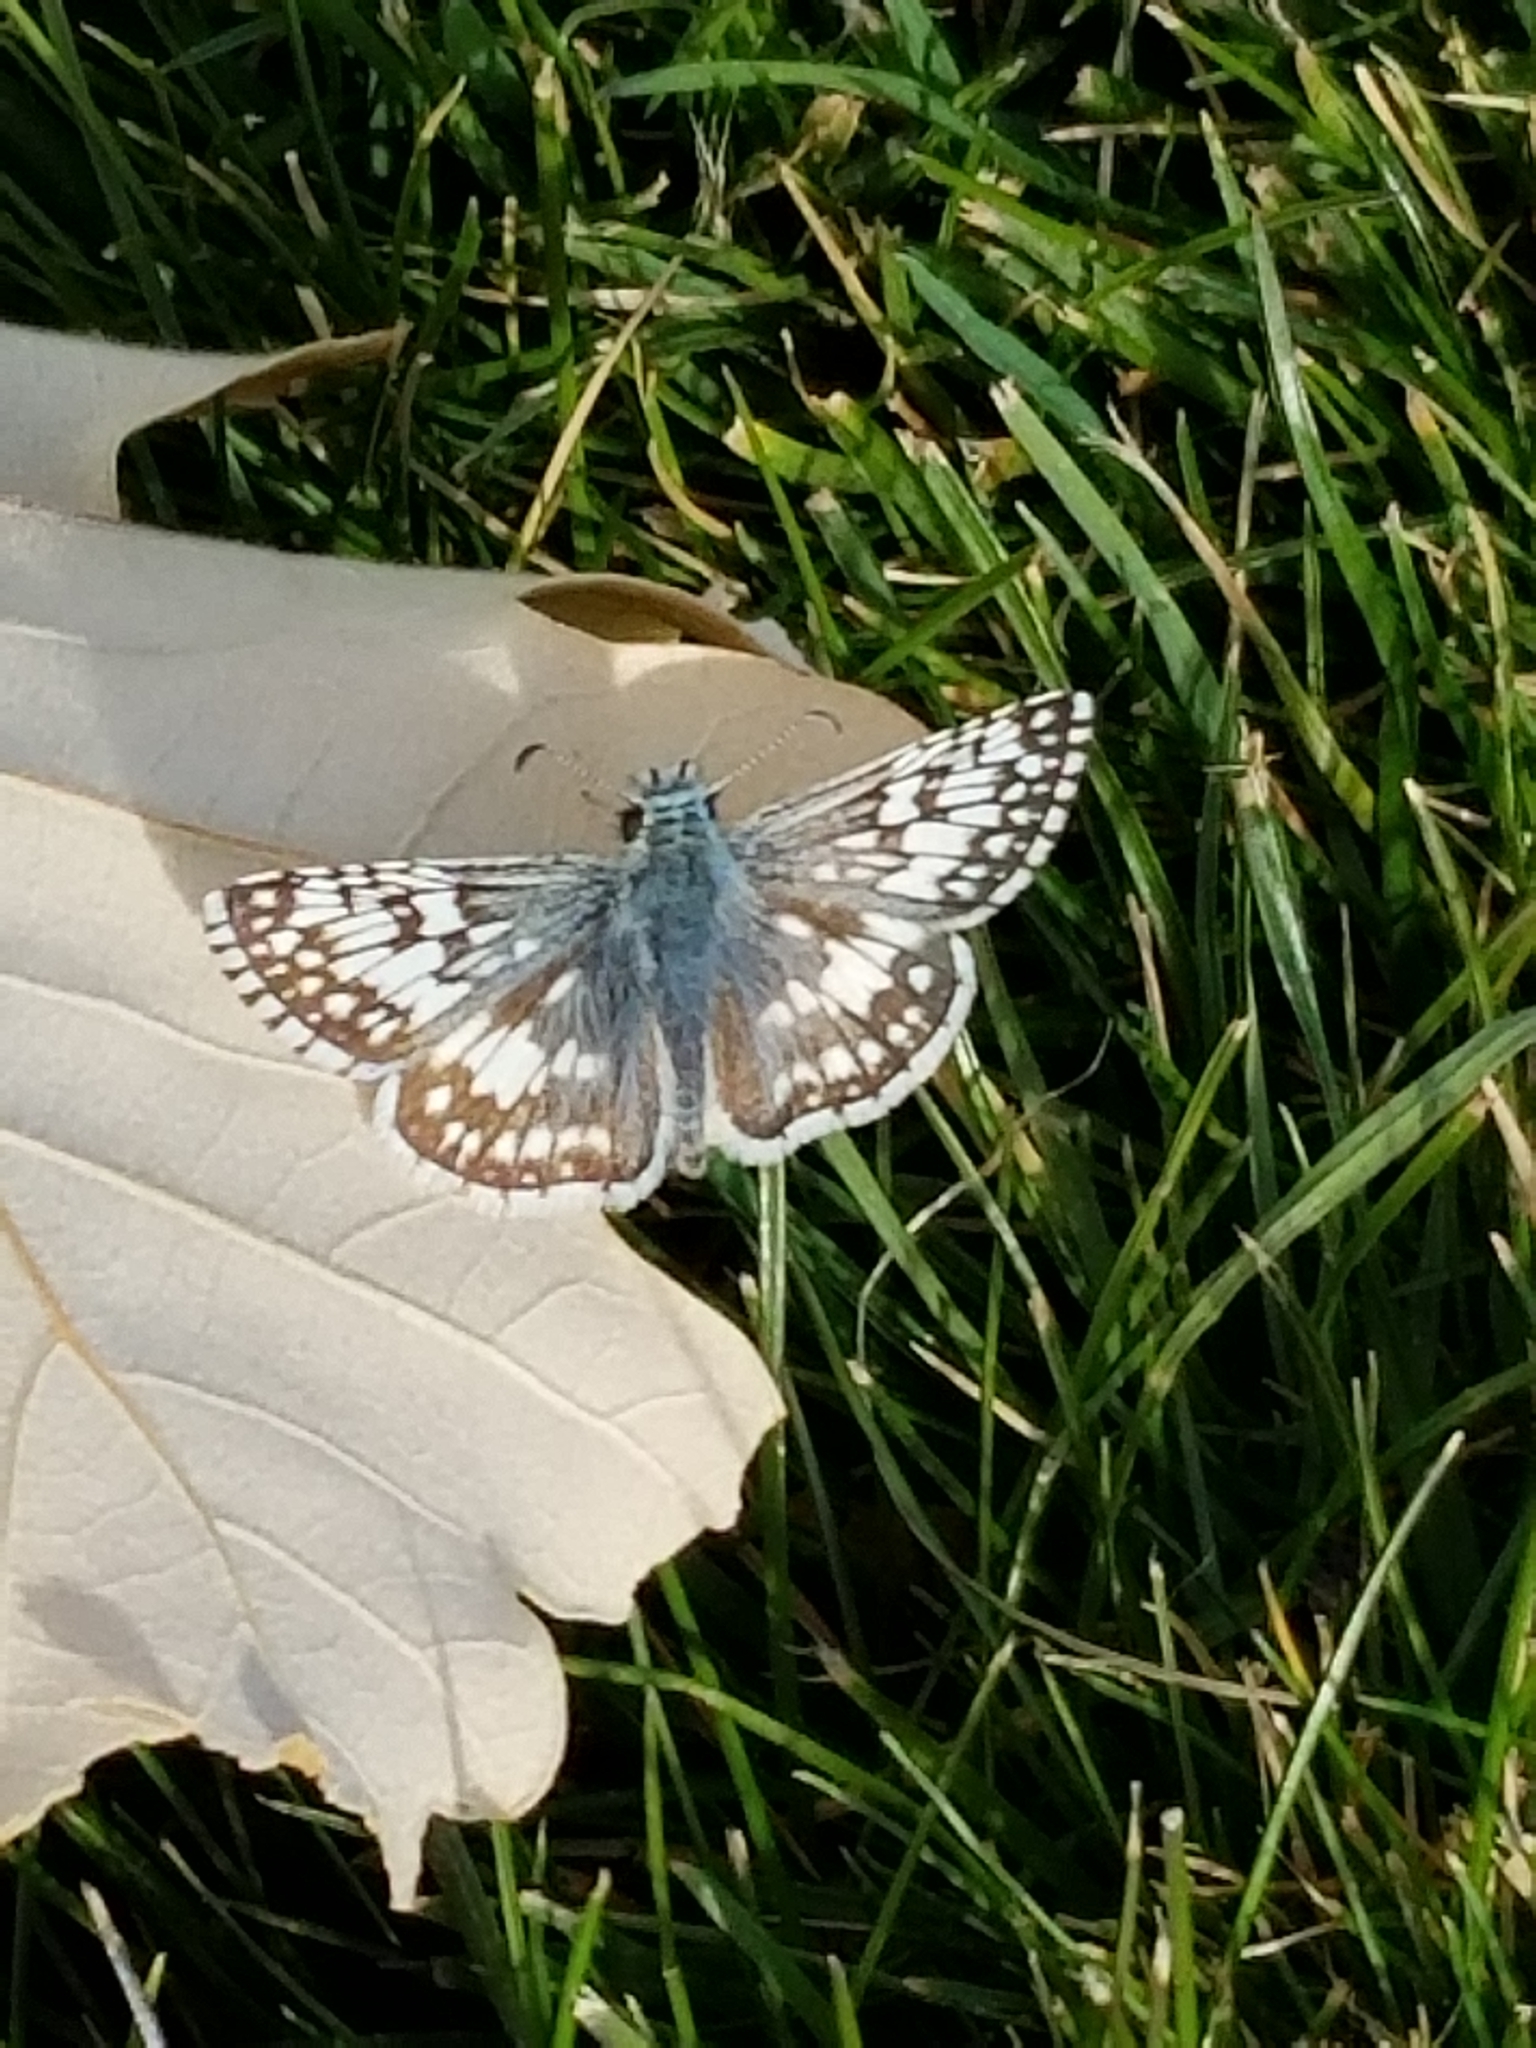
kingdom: Animalia
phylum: Arthropoda
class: Insecta
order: Lepidoptera
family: Hesperiidae
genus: Burnsius
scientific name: Burnsius communis
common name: Common checkered-skipper
